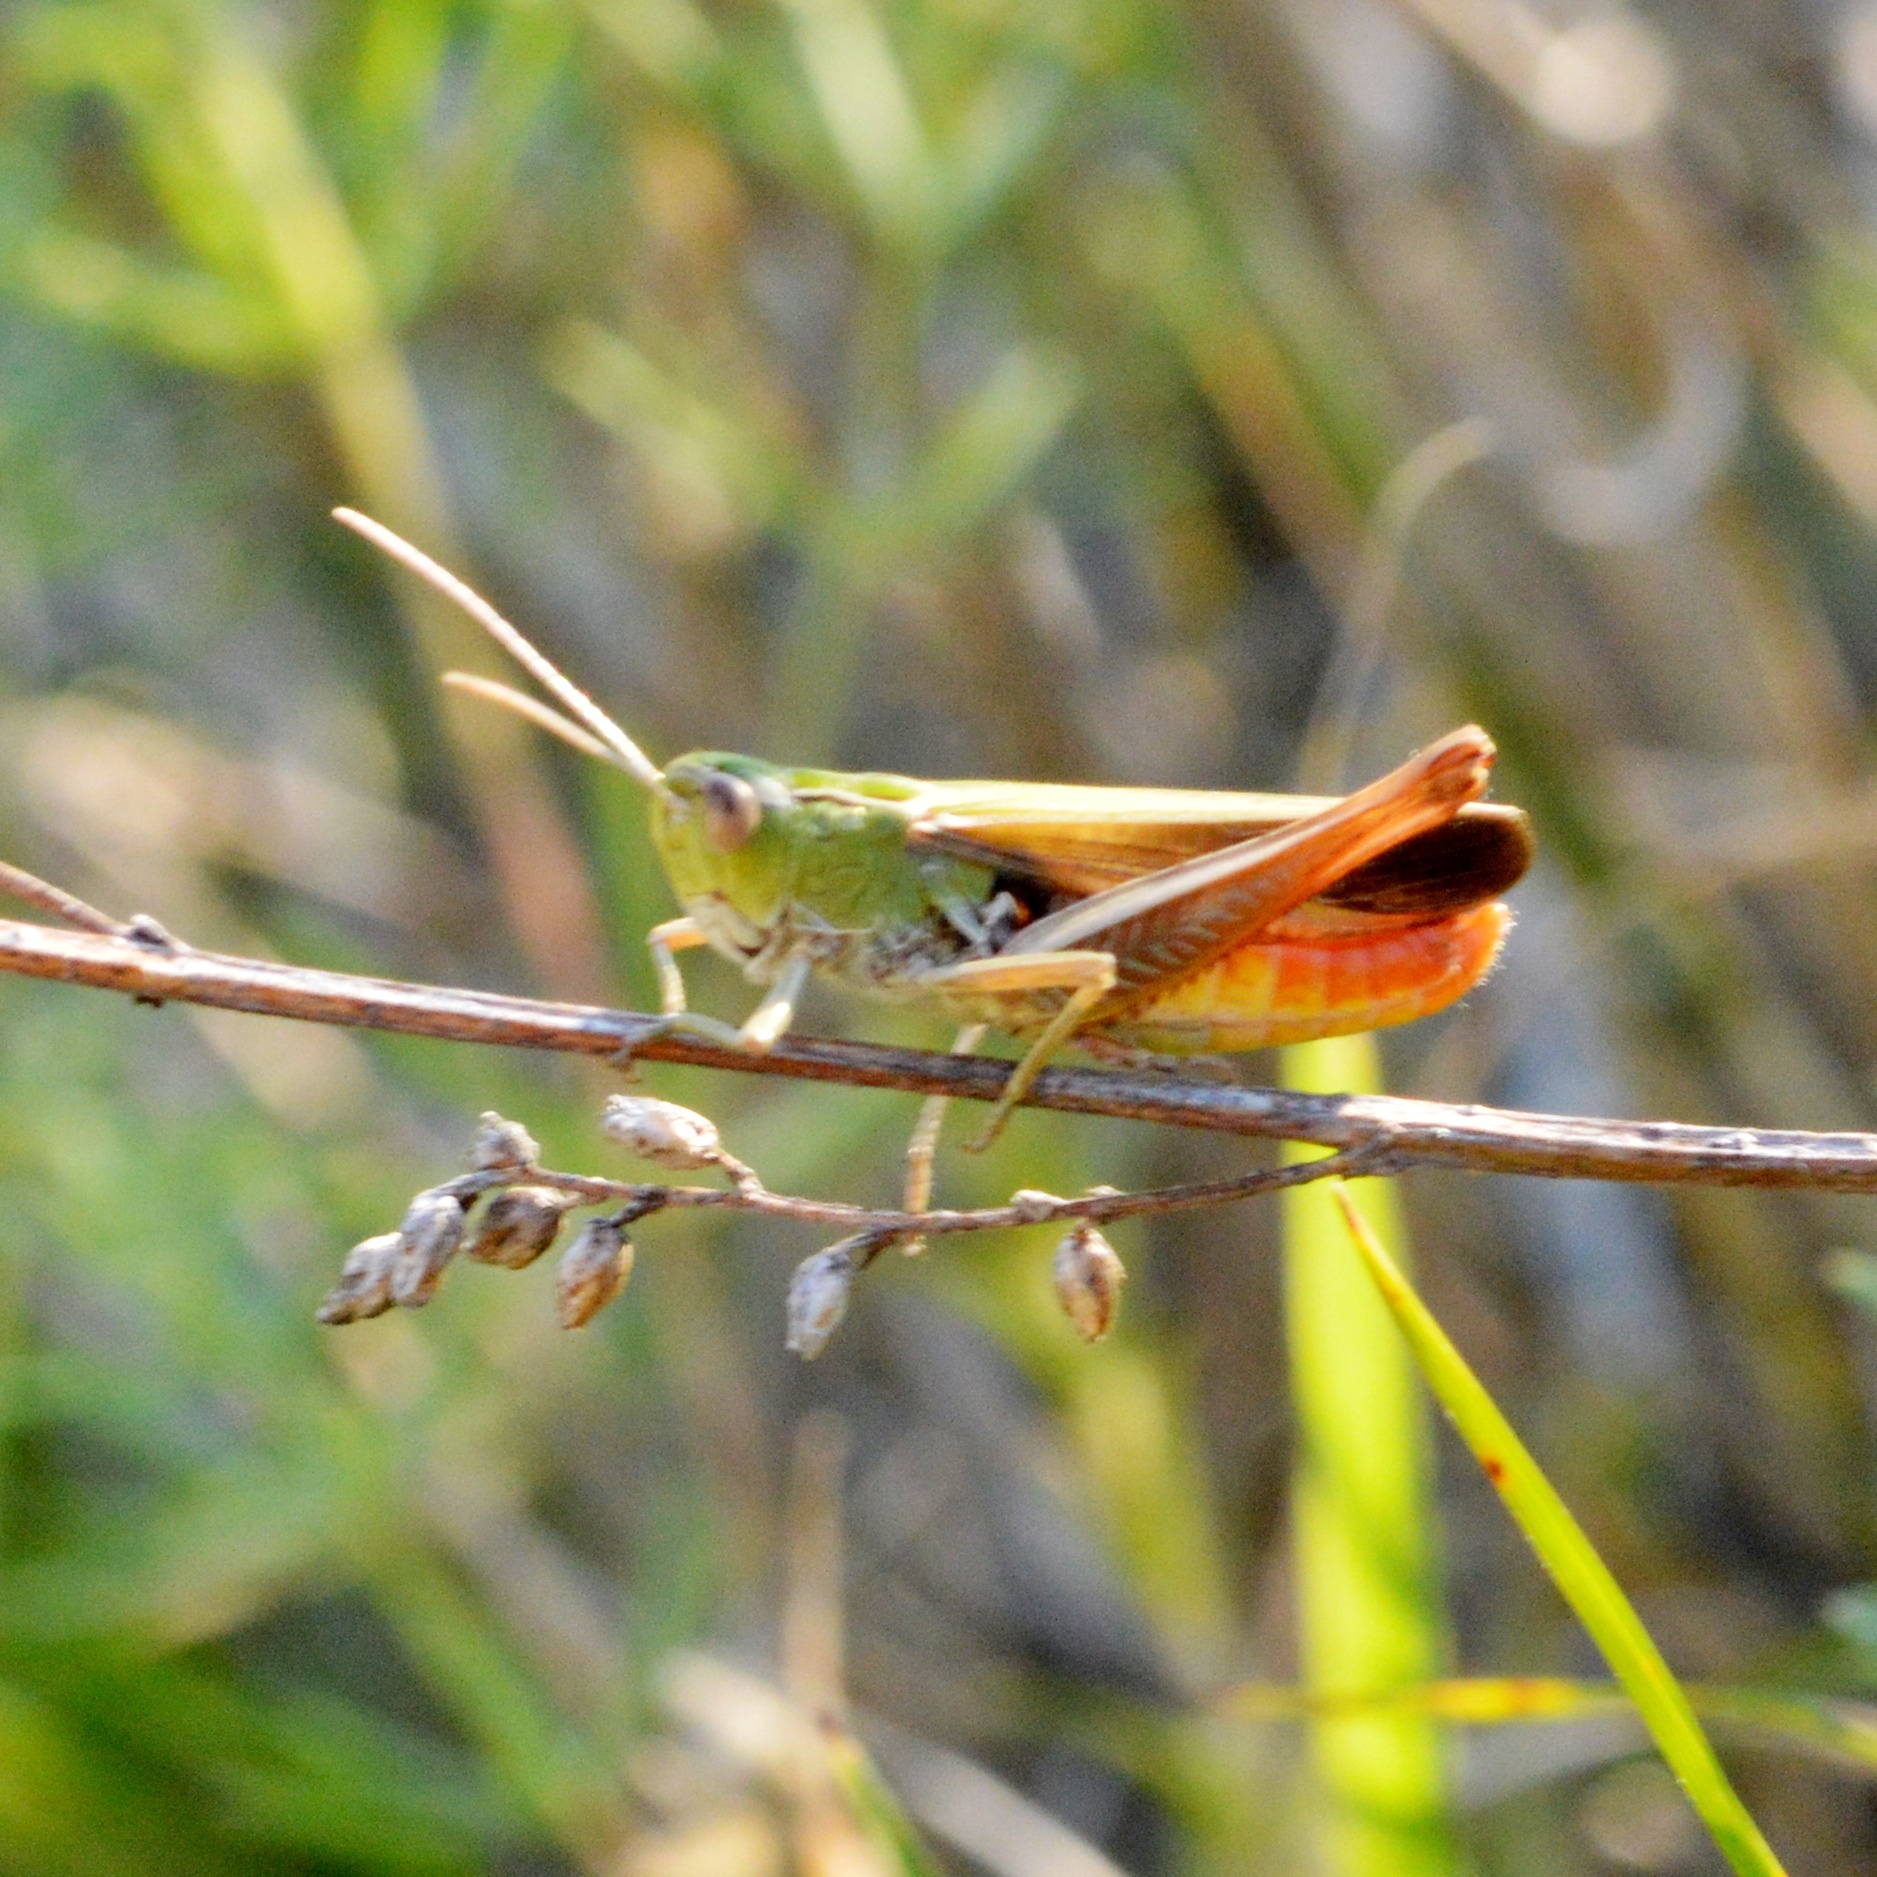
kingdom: Animalia
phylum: Arthropoda
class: Insecta
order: Orthoptera
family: Acrididae
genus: Stenobothrus
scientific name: Stenobothrus lineatus
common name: Stripe-winged grasshopper
